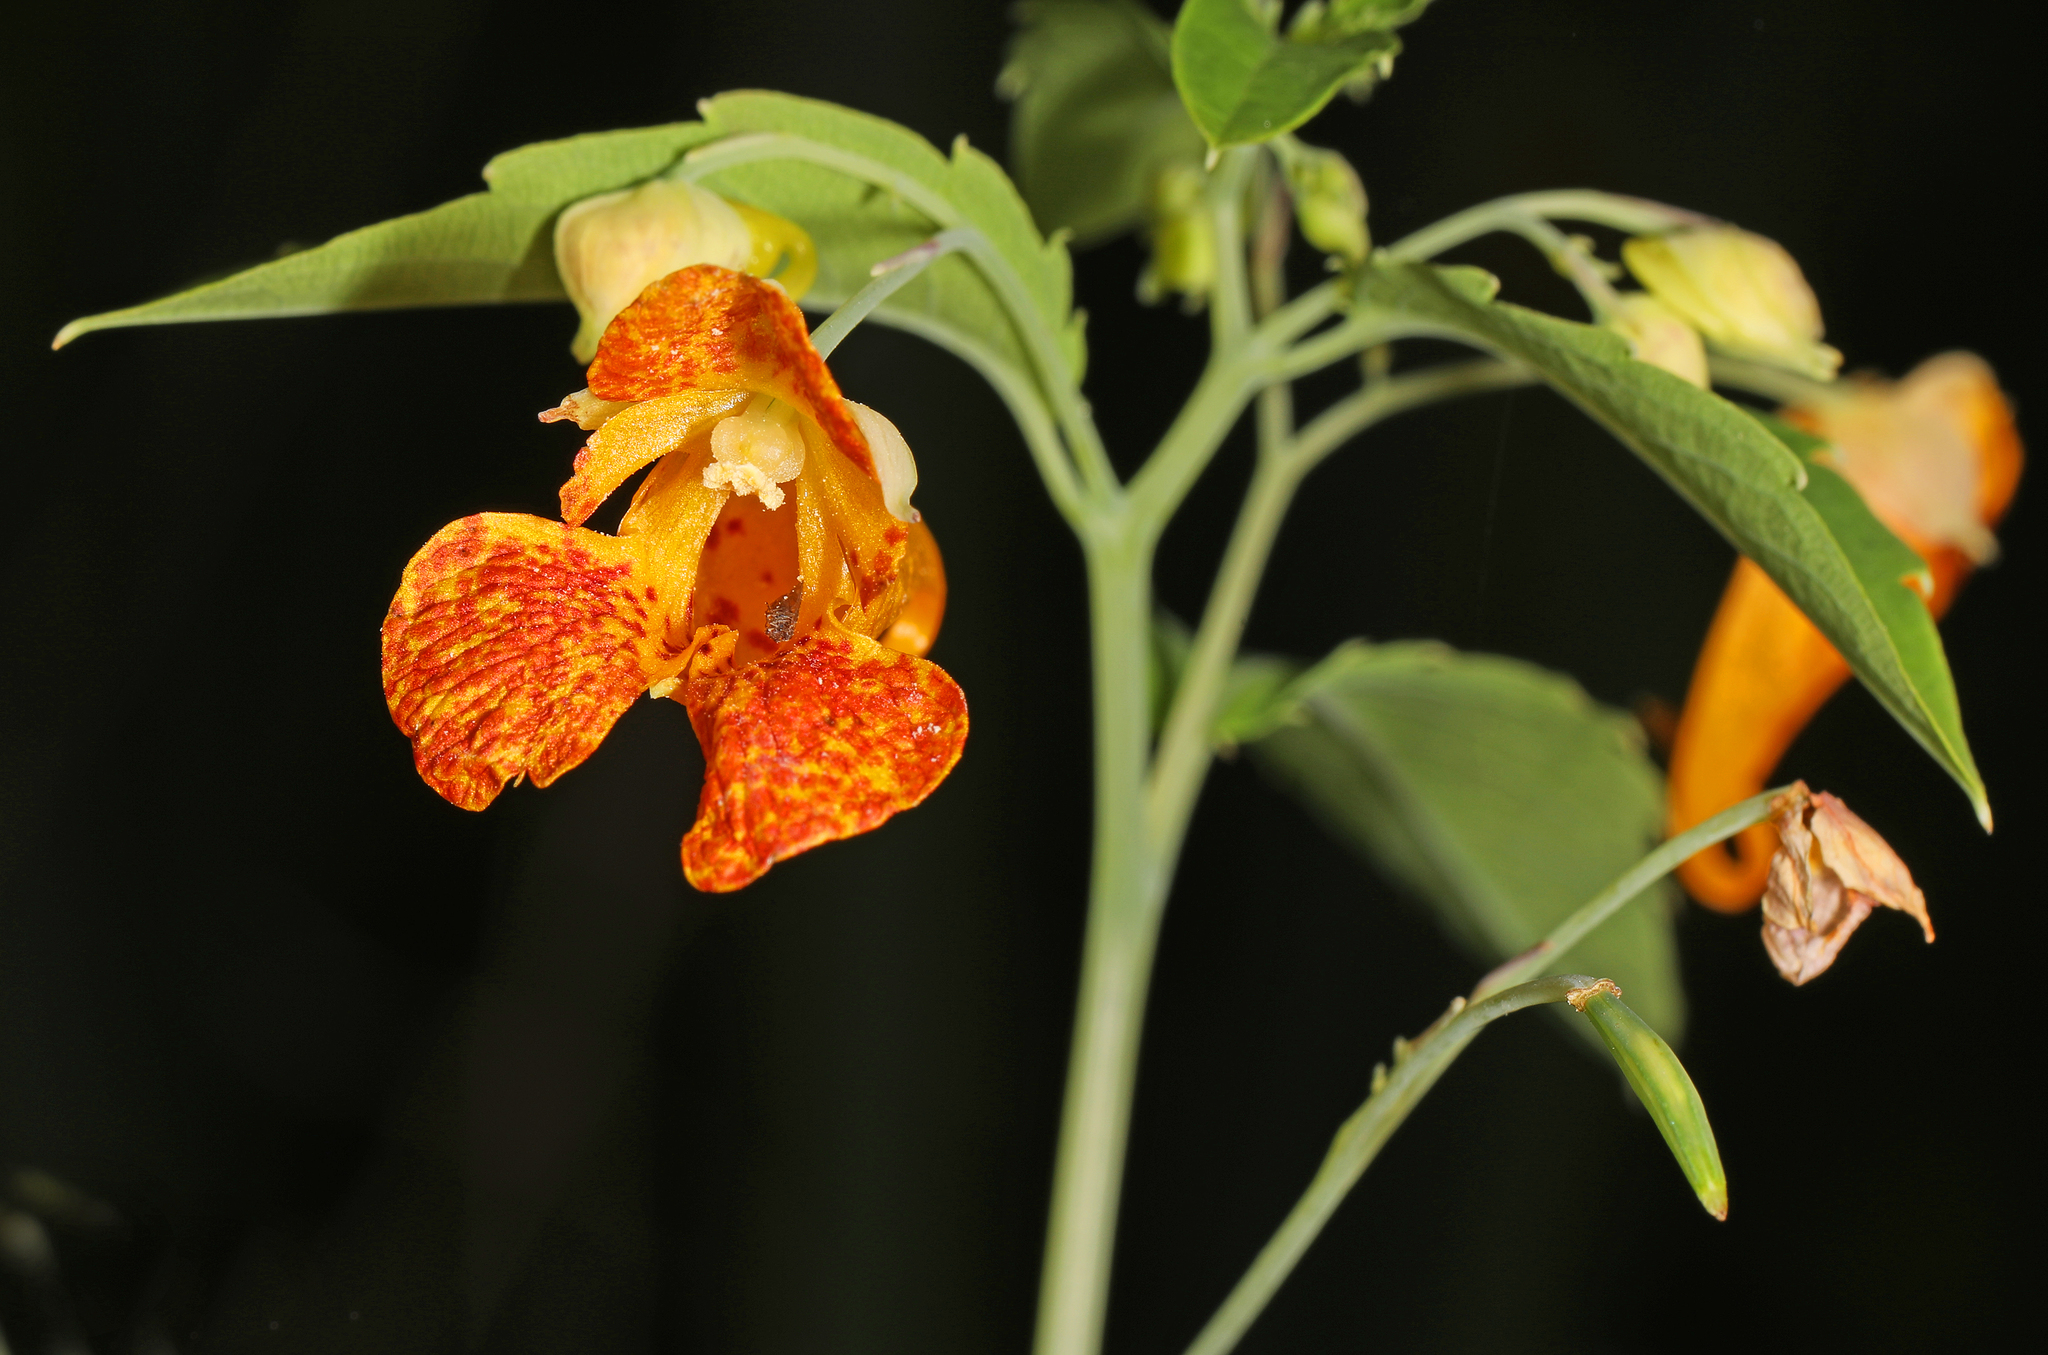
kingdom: Plantae
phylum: Tracheophyta
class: Magnoliopsida
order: Ericales
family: Balsaminaceae
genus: Impatiens
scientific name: Impatiens capensis
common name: Orange balsam
